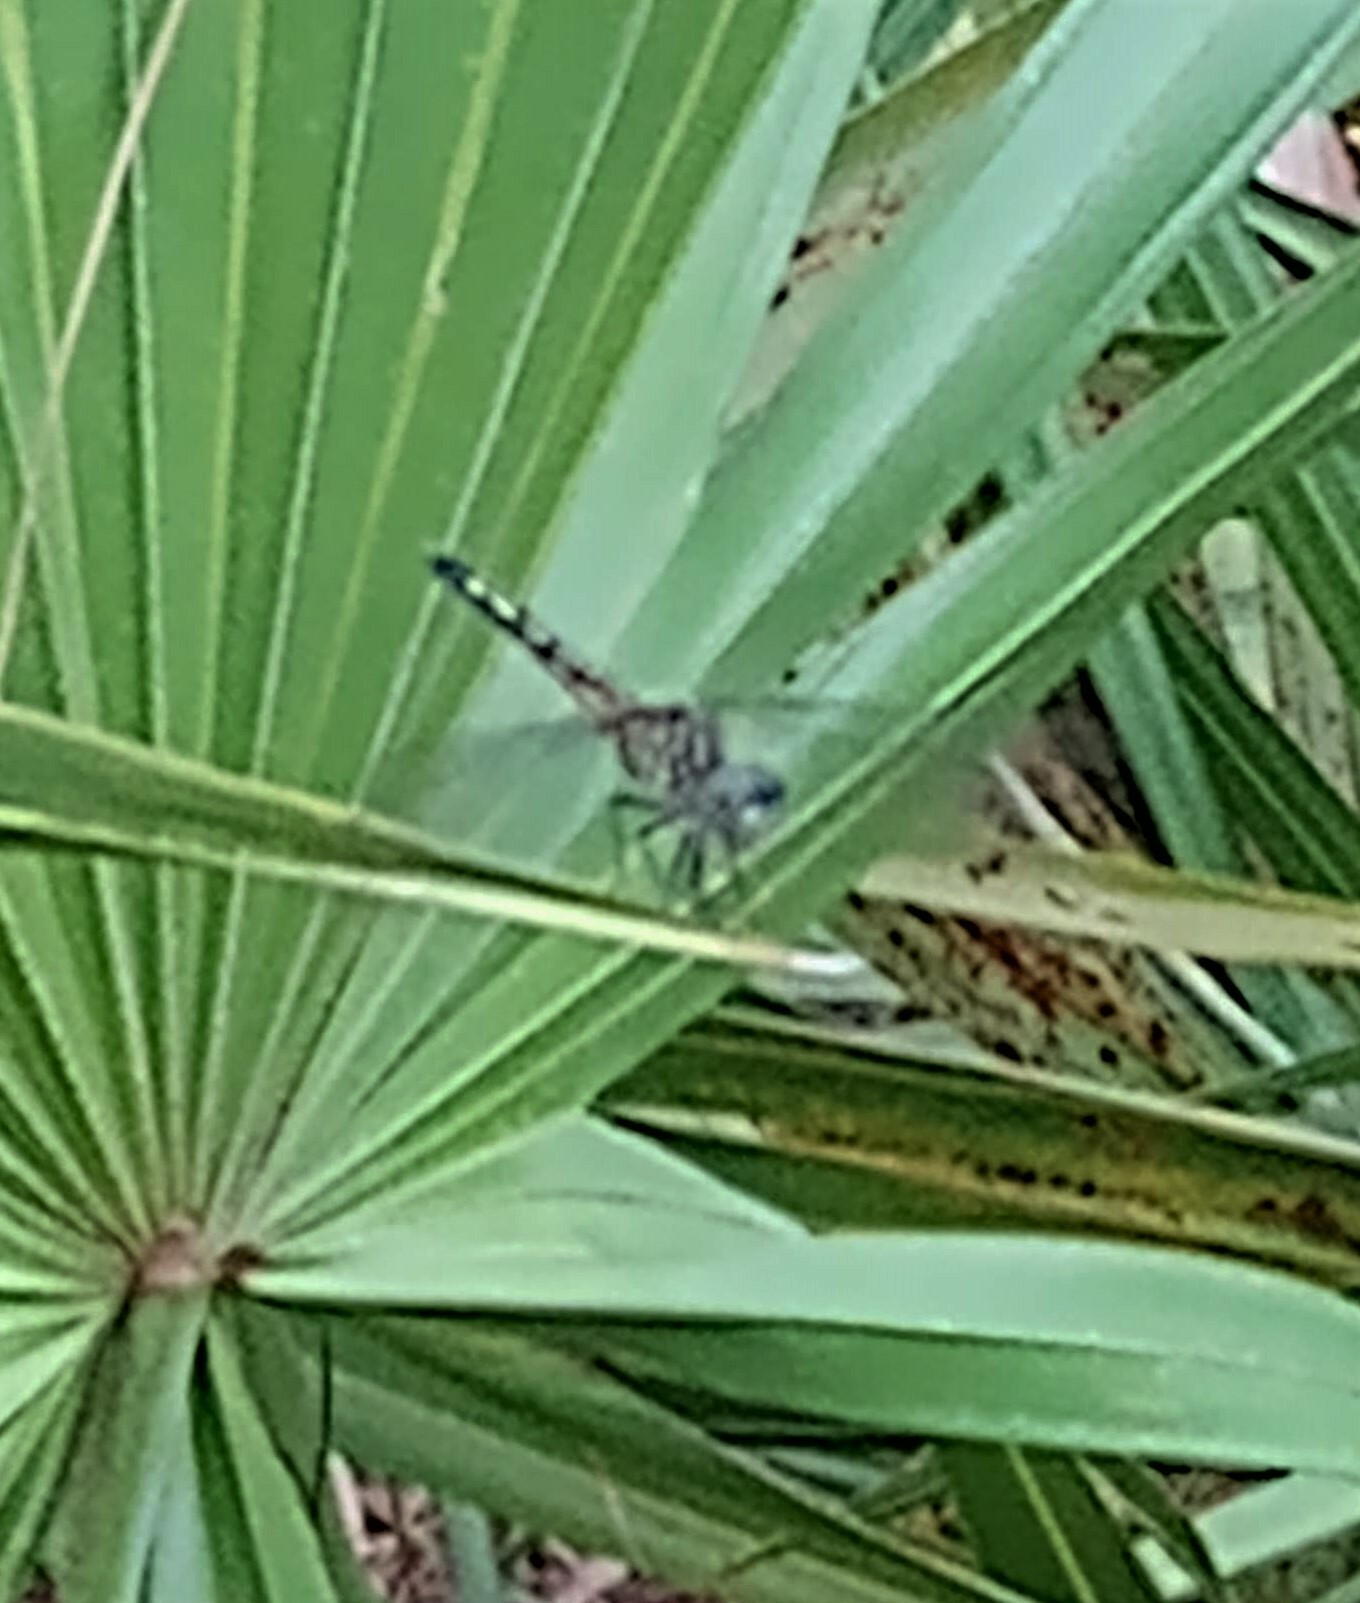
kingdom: Animalia
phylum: Arthropoda
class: Insecta
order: Odonata
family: Libellulidae
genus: Pachydiplax
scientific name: Pachydiplax longipennis
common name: Blue dasher
